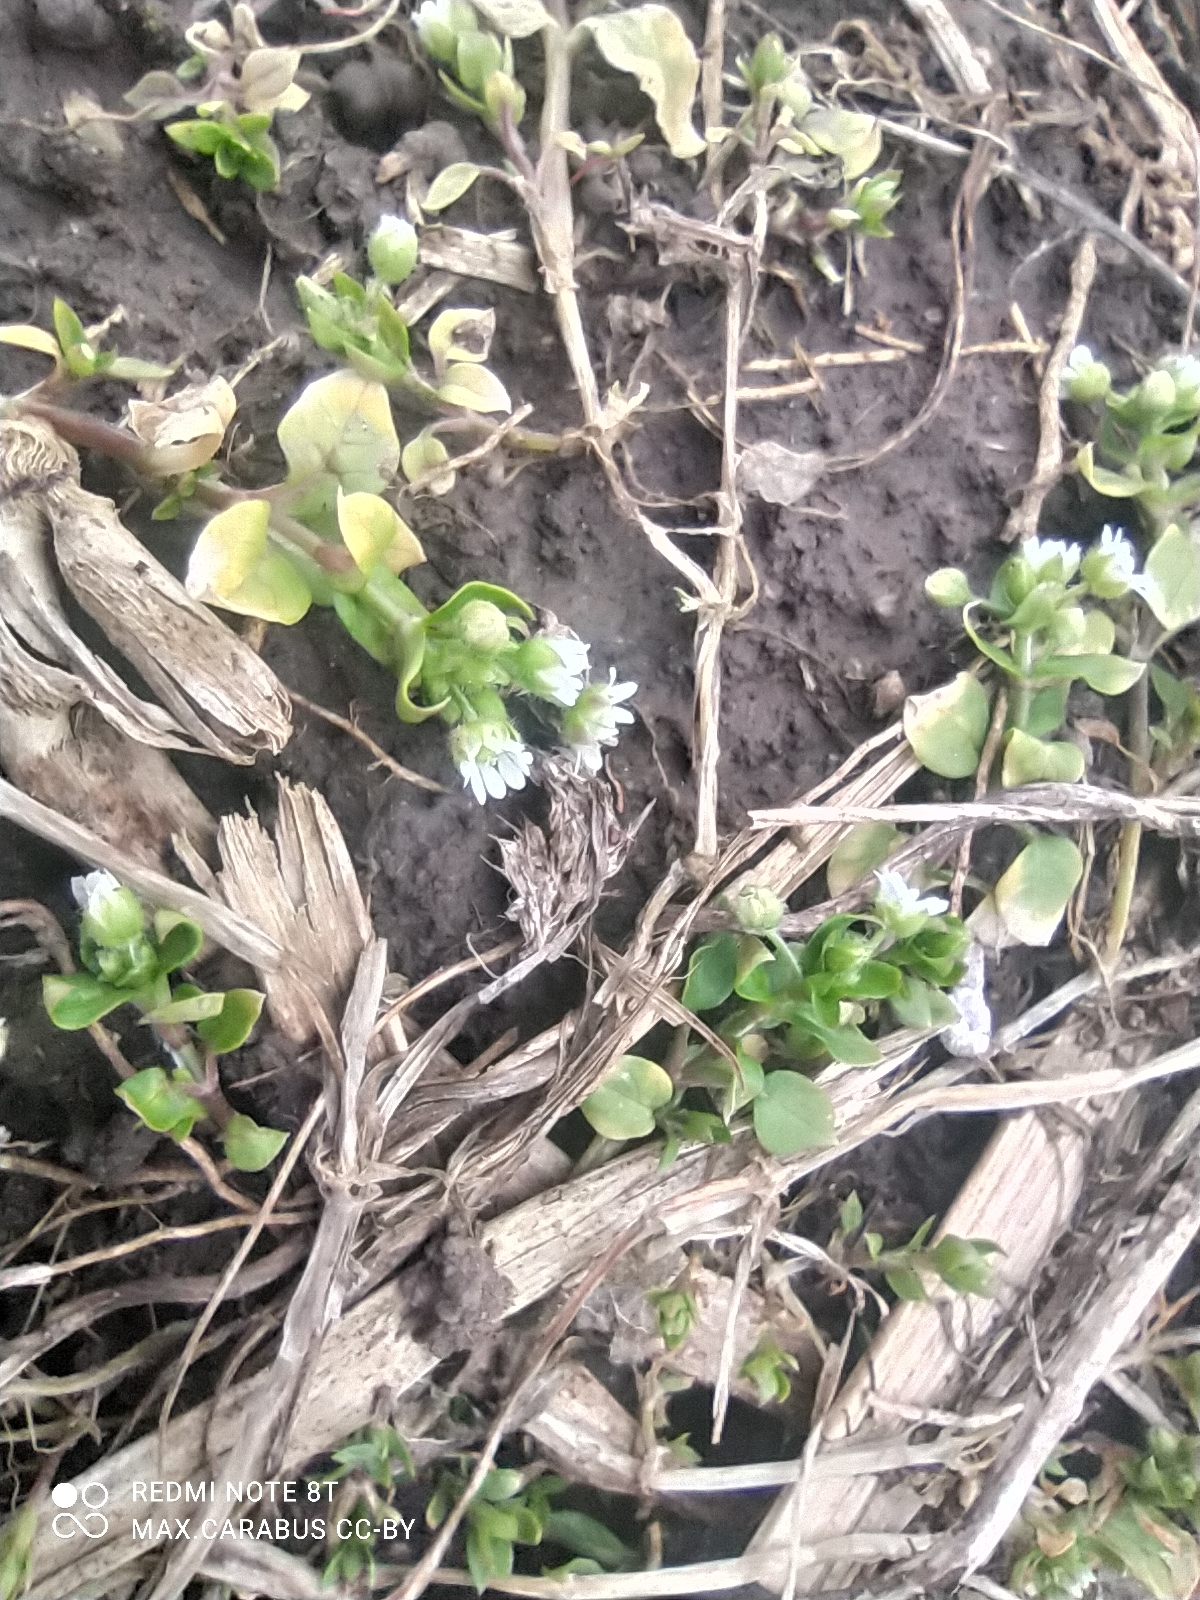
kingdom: Plantae
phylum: Tracheophyta
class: Magnoliopsida
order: Caryophyllales
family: Caryophyllaceae
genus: Stellaria
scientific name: Stellaria media
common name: Common chickweed
